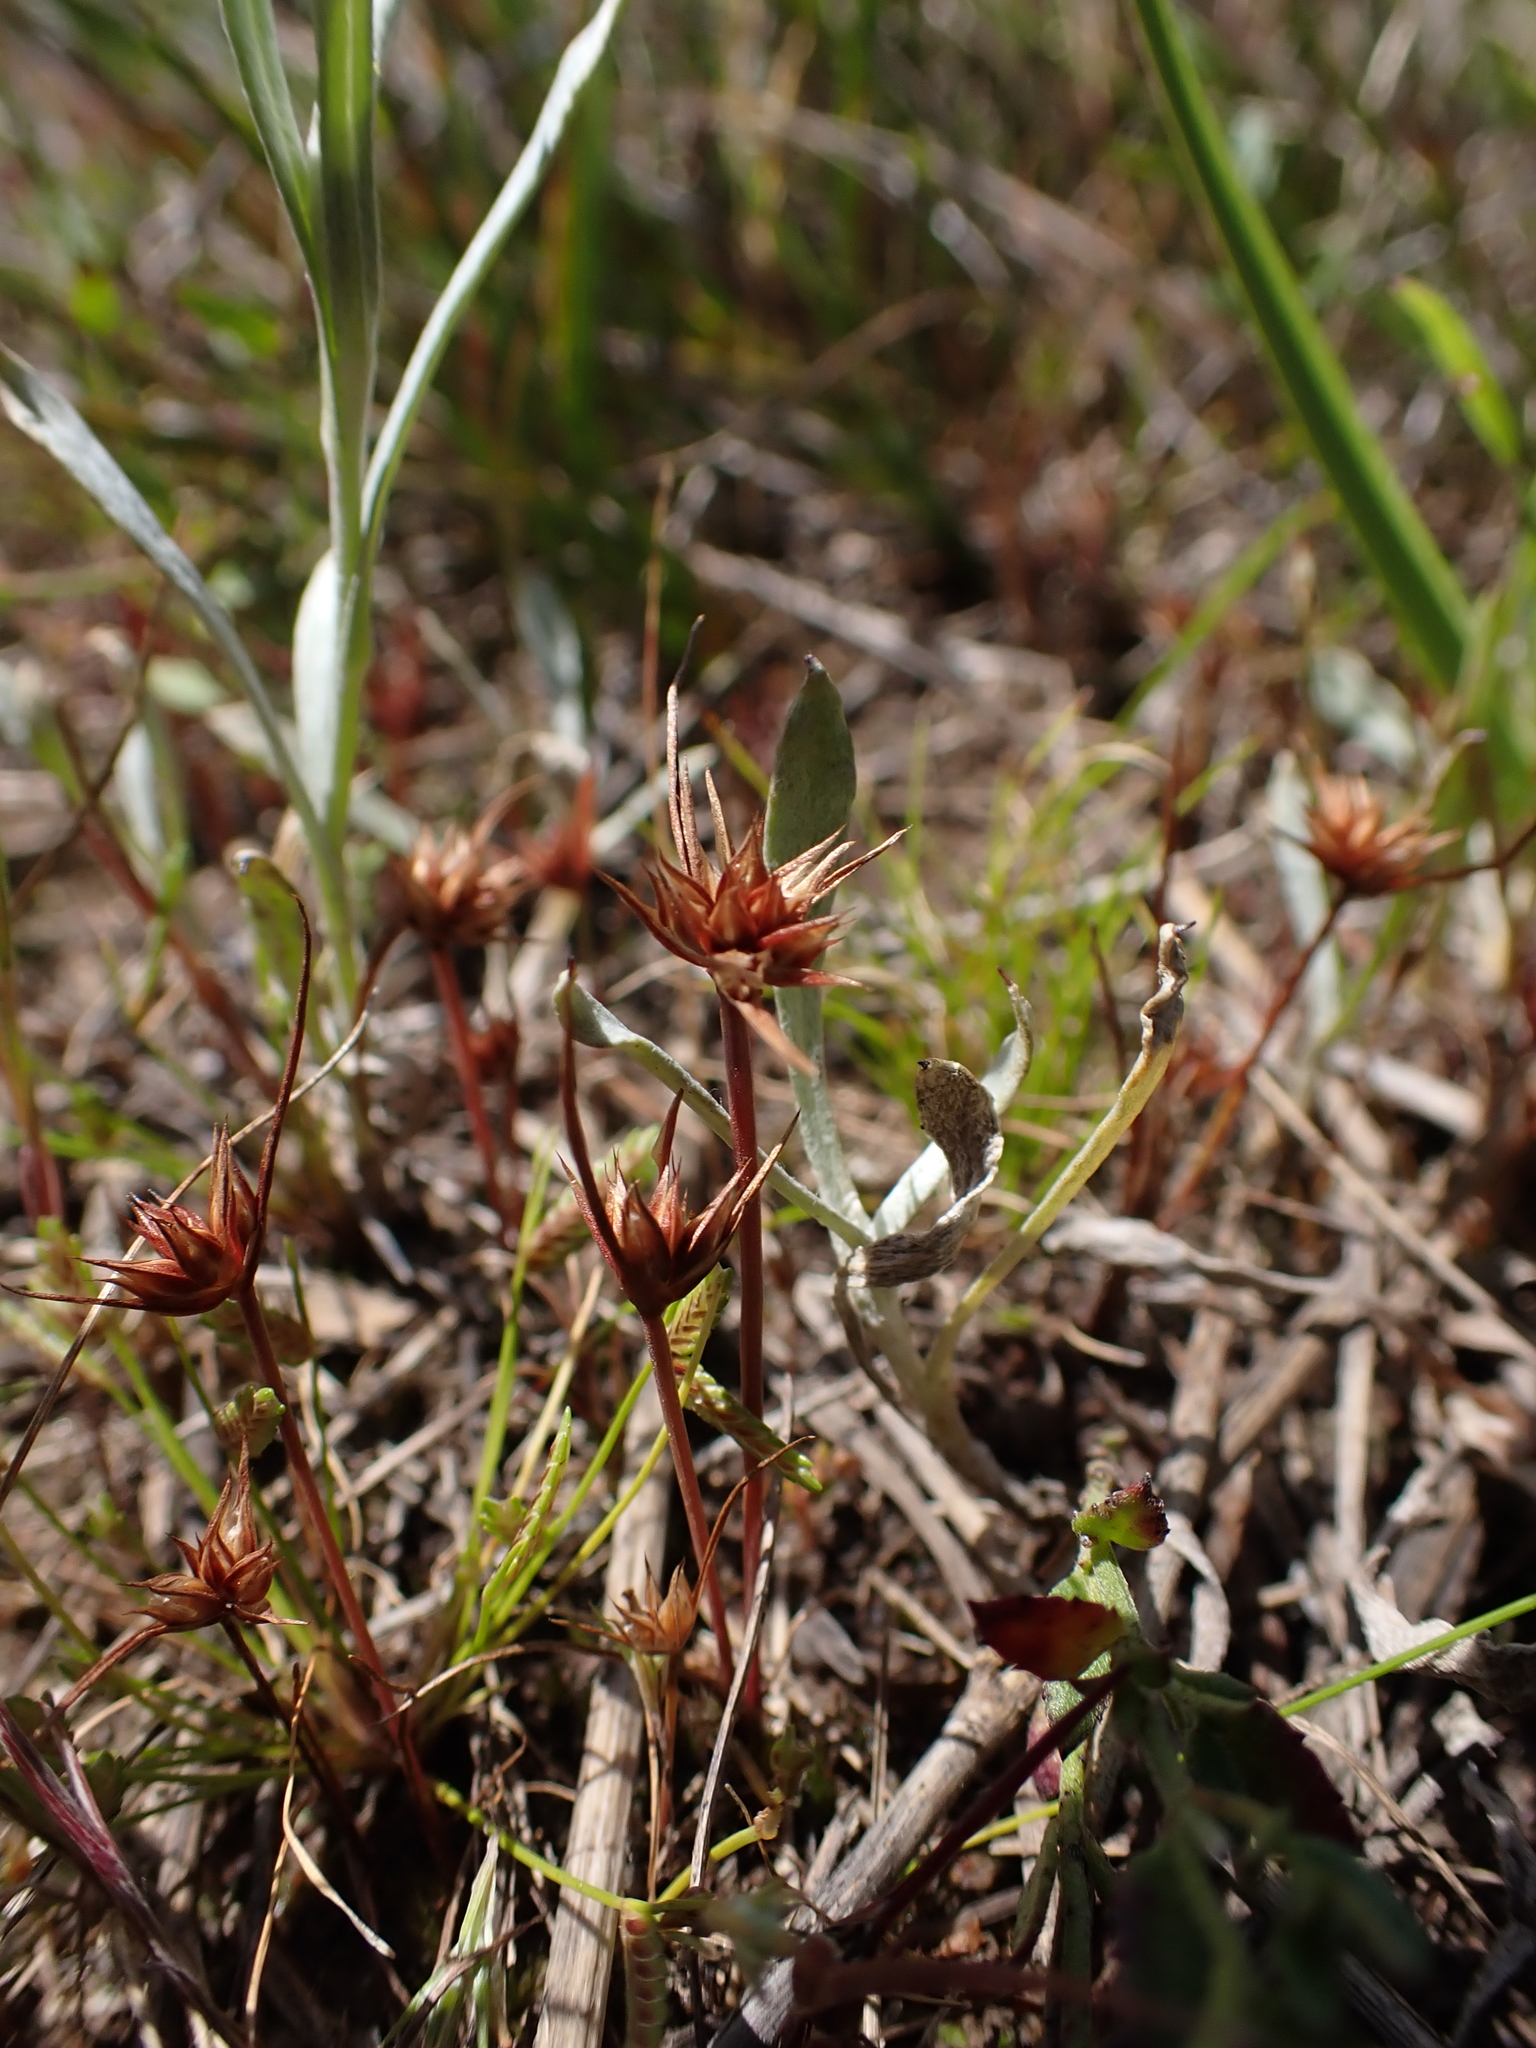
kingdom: Plantae
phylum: Tracheophyta
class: Liliopsida
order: Poales
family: Juncaceae
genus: Juncus
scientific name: Juncus capitatus
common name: Dwarf rush
